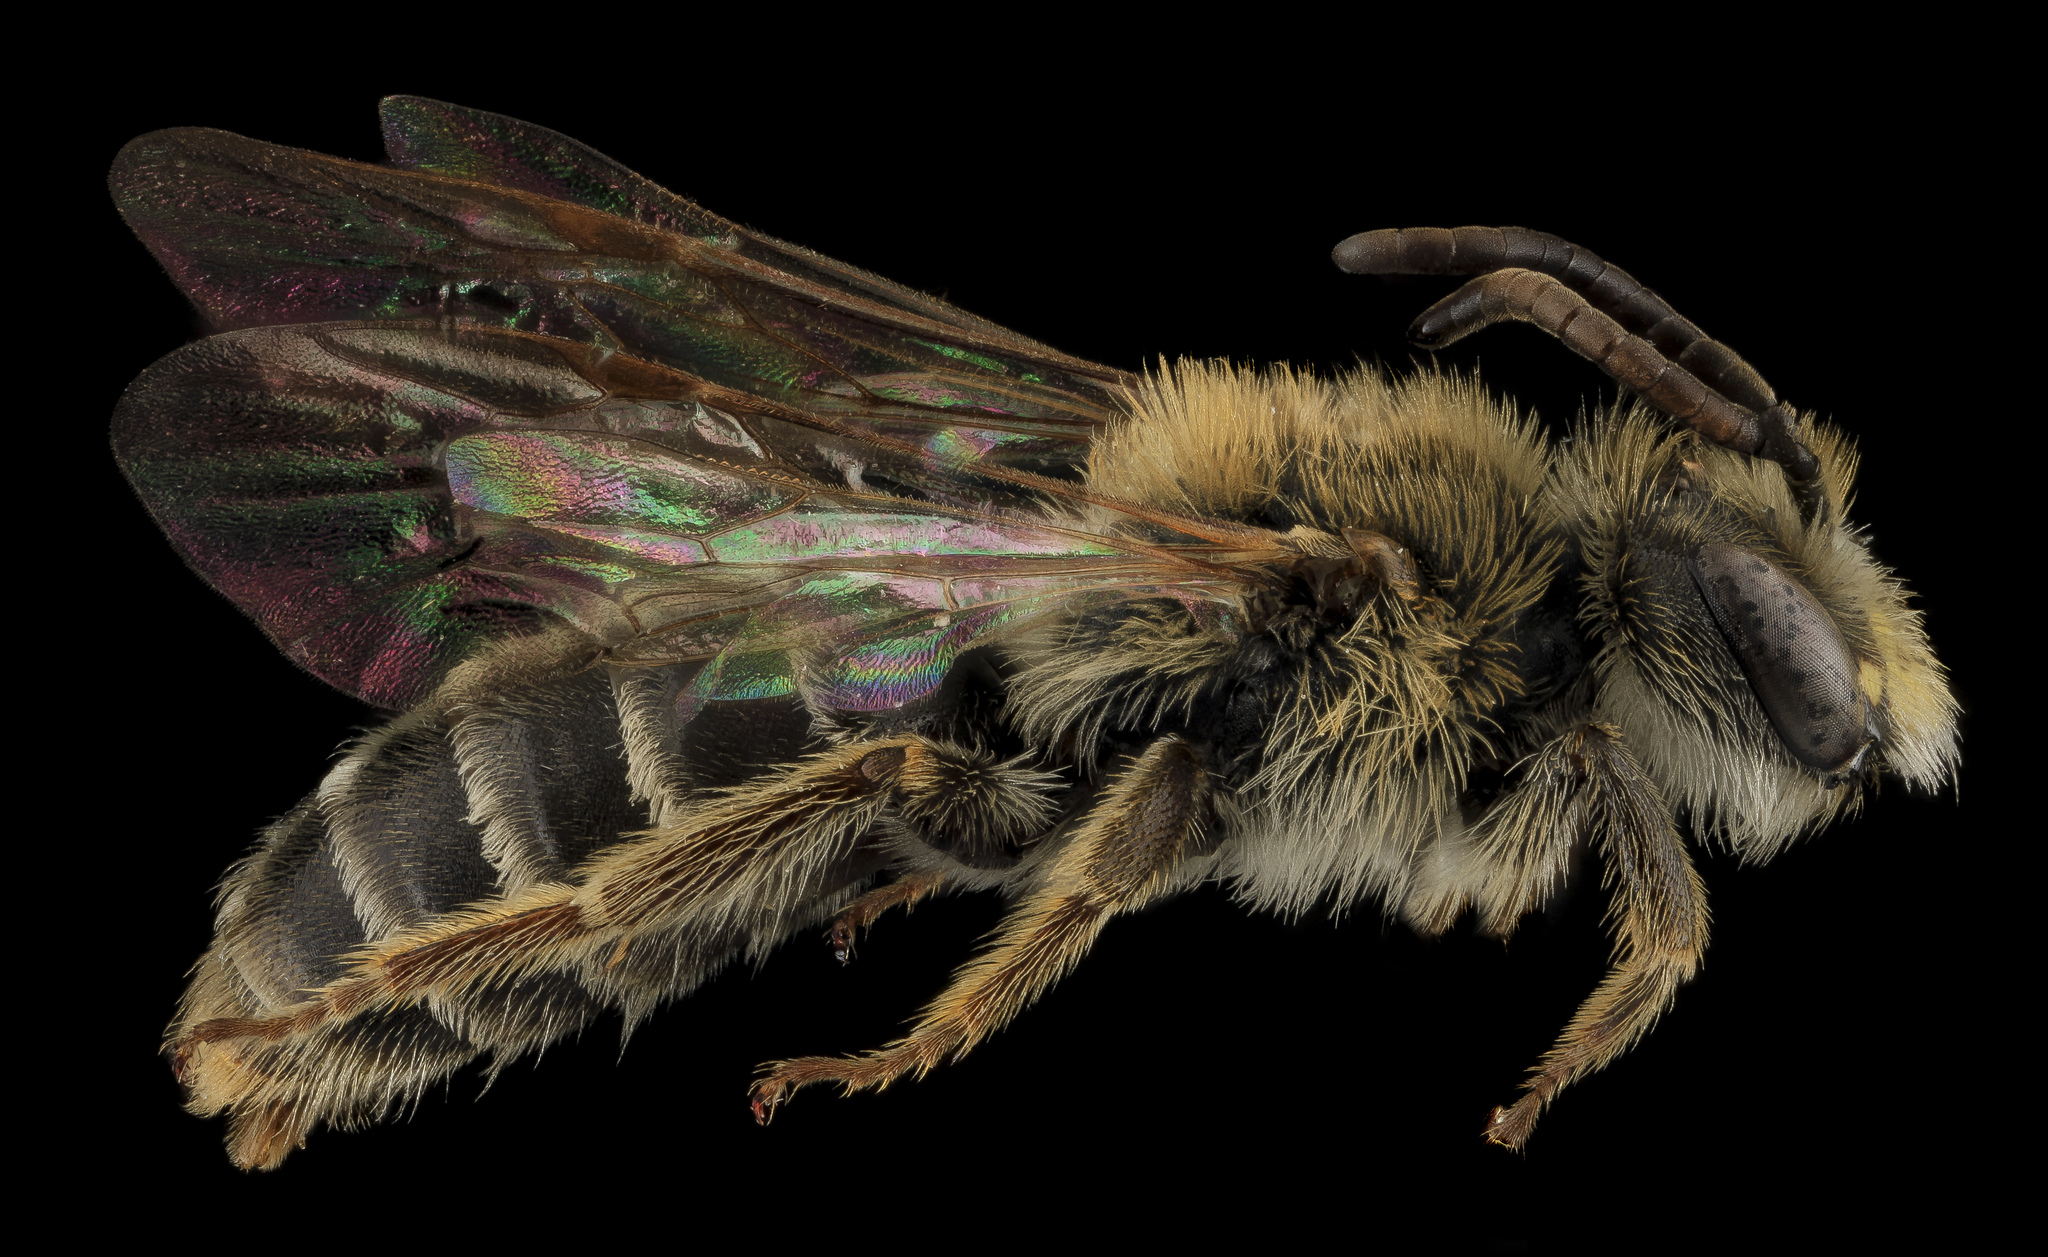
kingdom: Animalia
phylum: Arthropoda
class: Insecta
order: Hymenoptera
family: Andrenidae
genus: Andrena
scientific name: Andrena cragini
